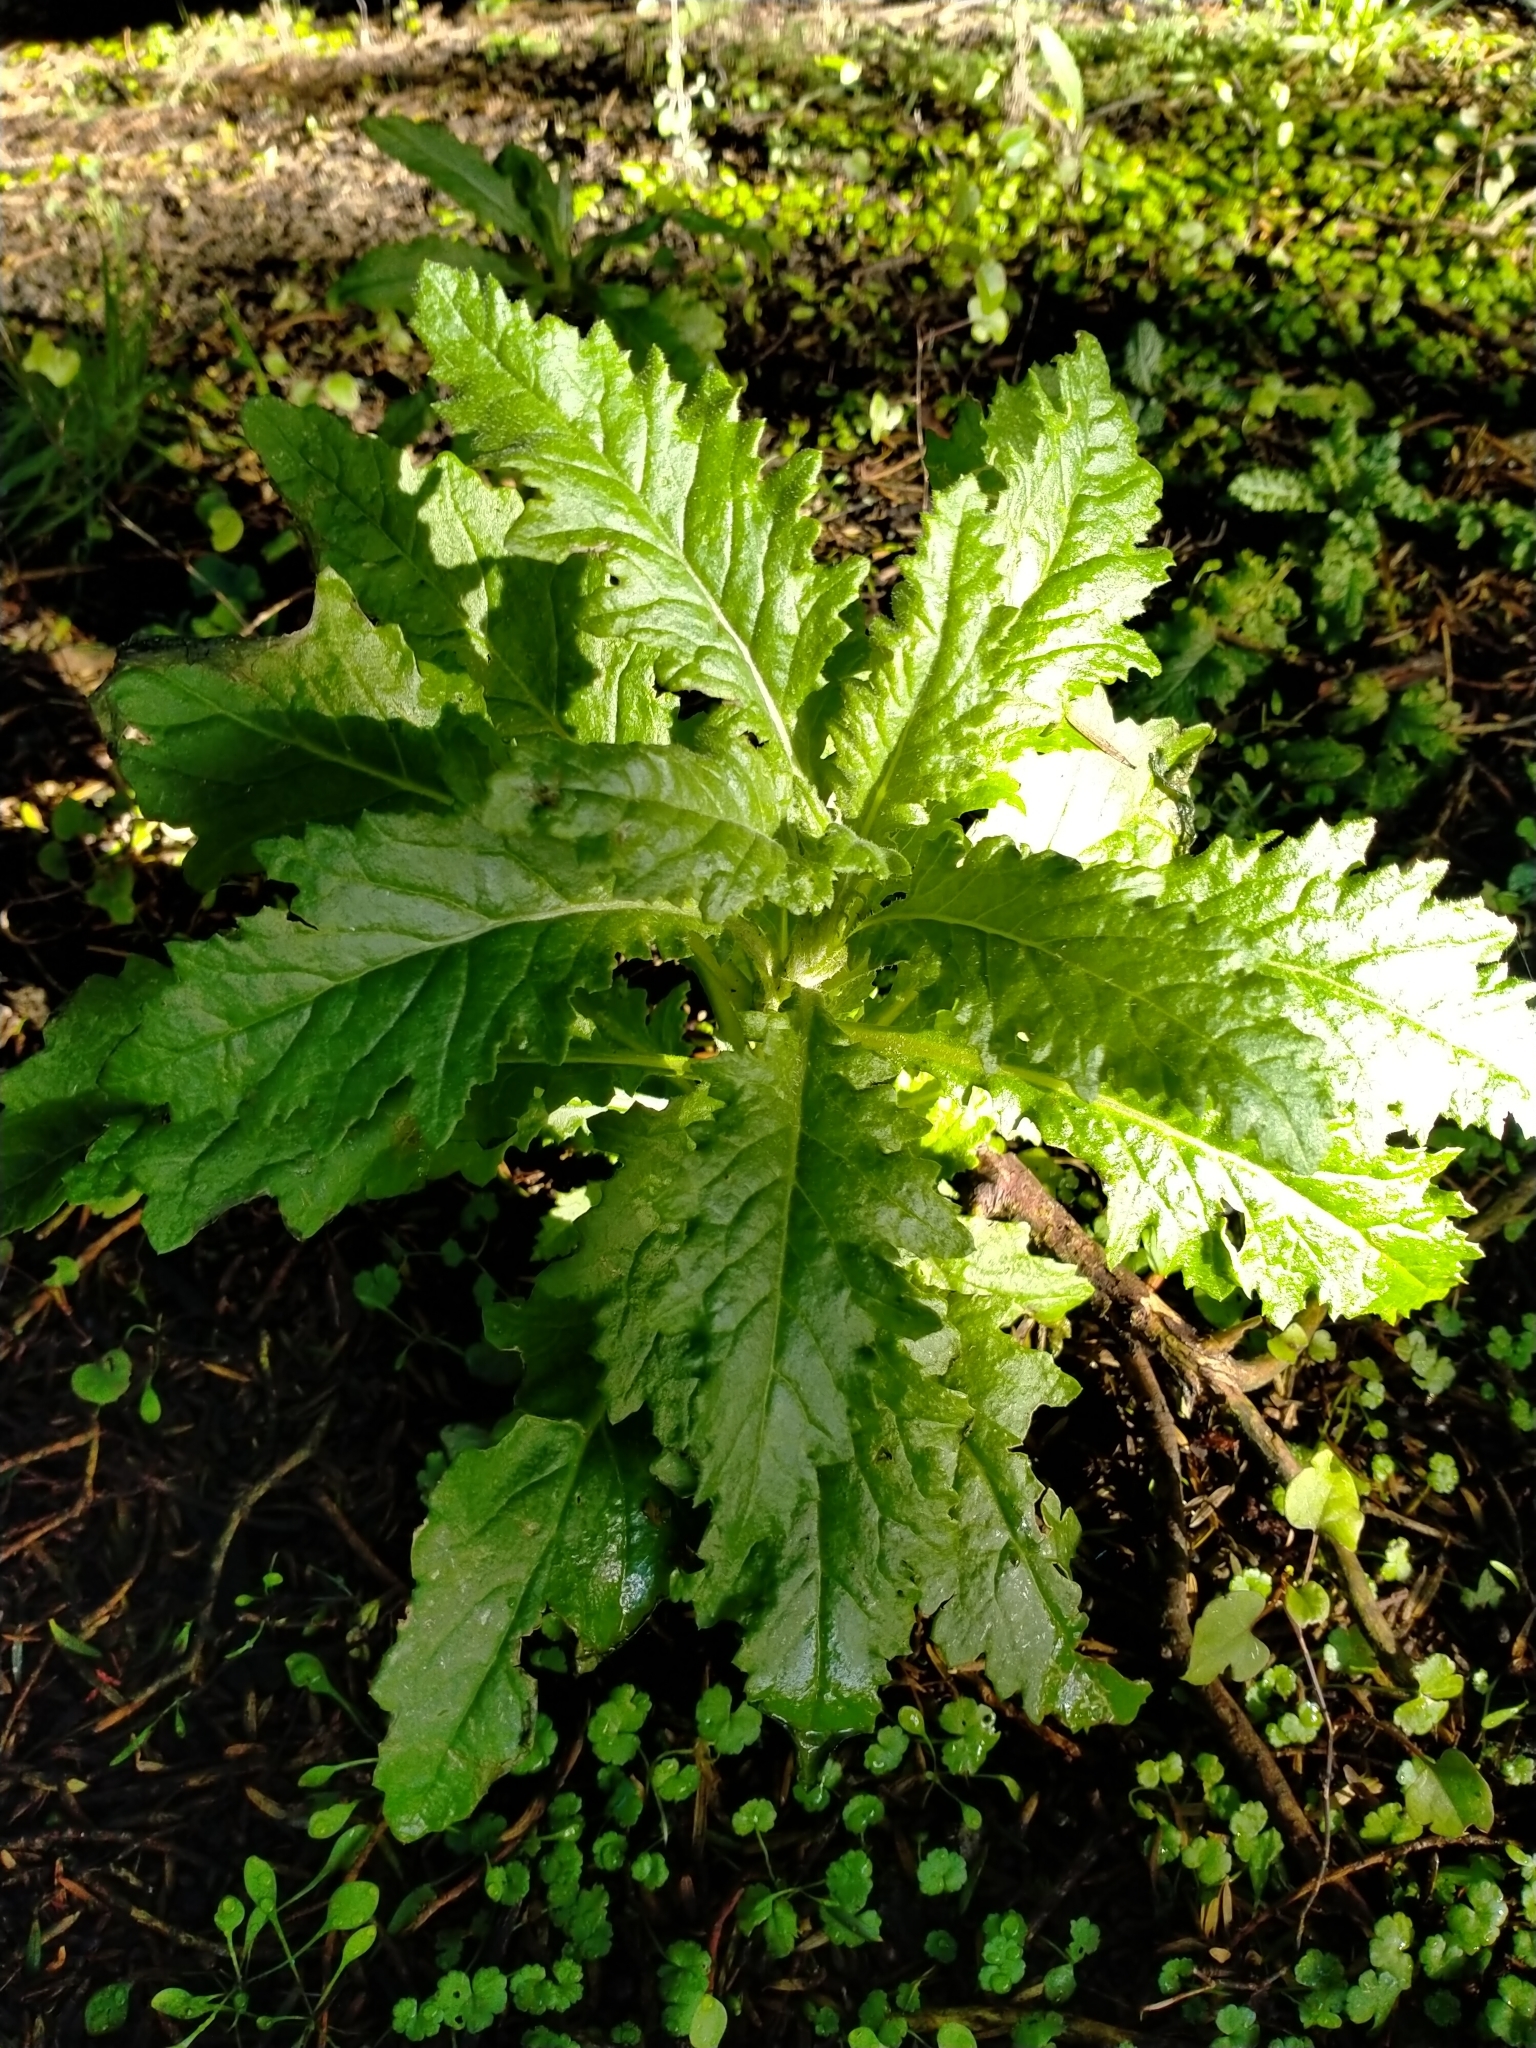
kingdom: Plantae
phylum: Tracheophyta
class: Magnoliopsida
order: Asterales
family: Asteraceae
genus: Senecio
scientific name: Senecio biserratus
